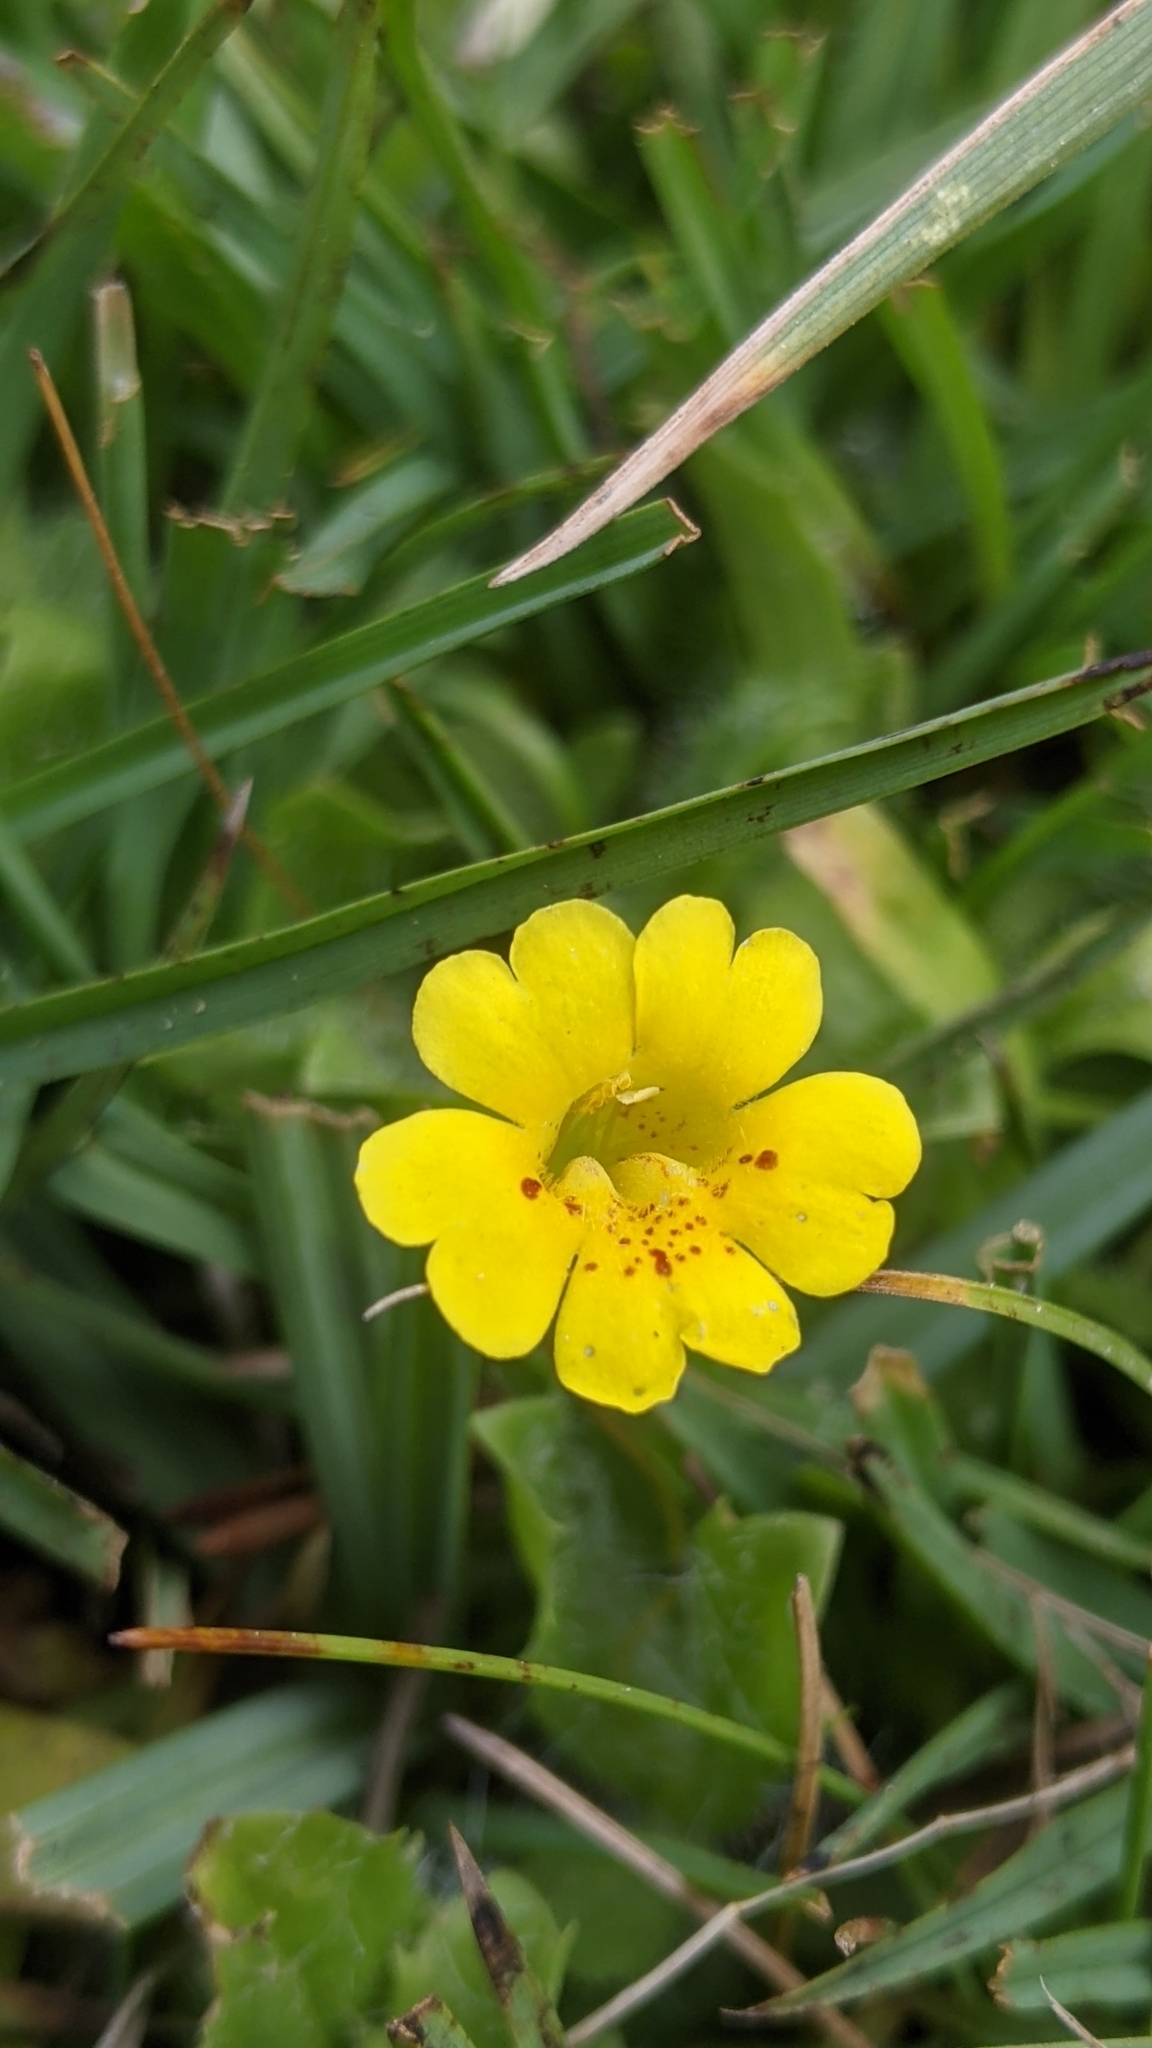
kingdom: Plantae
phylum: Tracheophyta
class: Magnoliopsida
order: Lamiales
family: Phrymaceae
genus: Erythranthe
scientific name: Erythranthe primuloides
